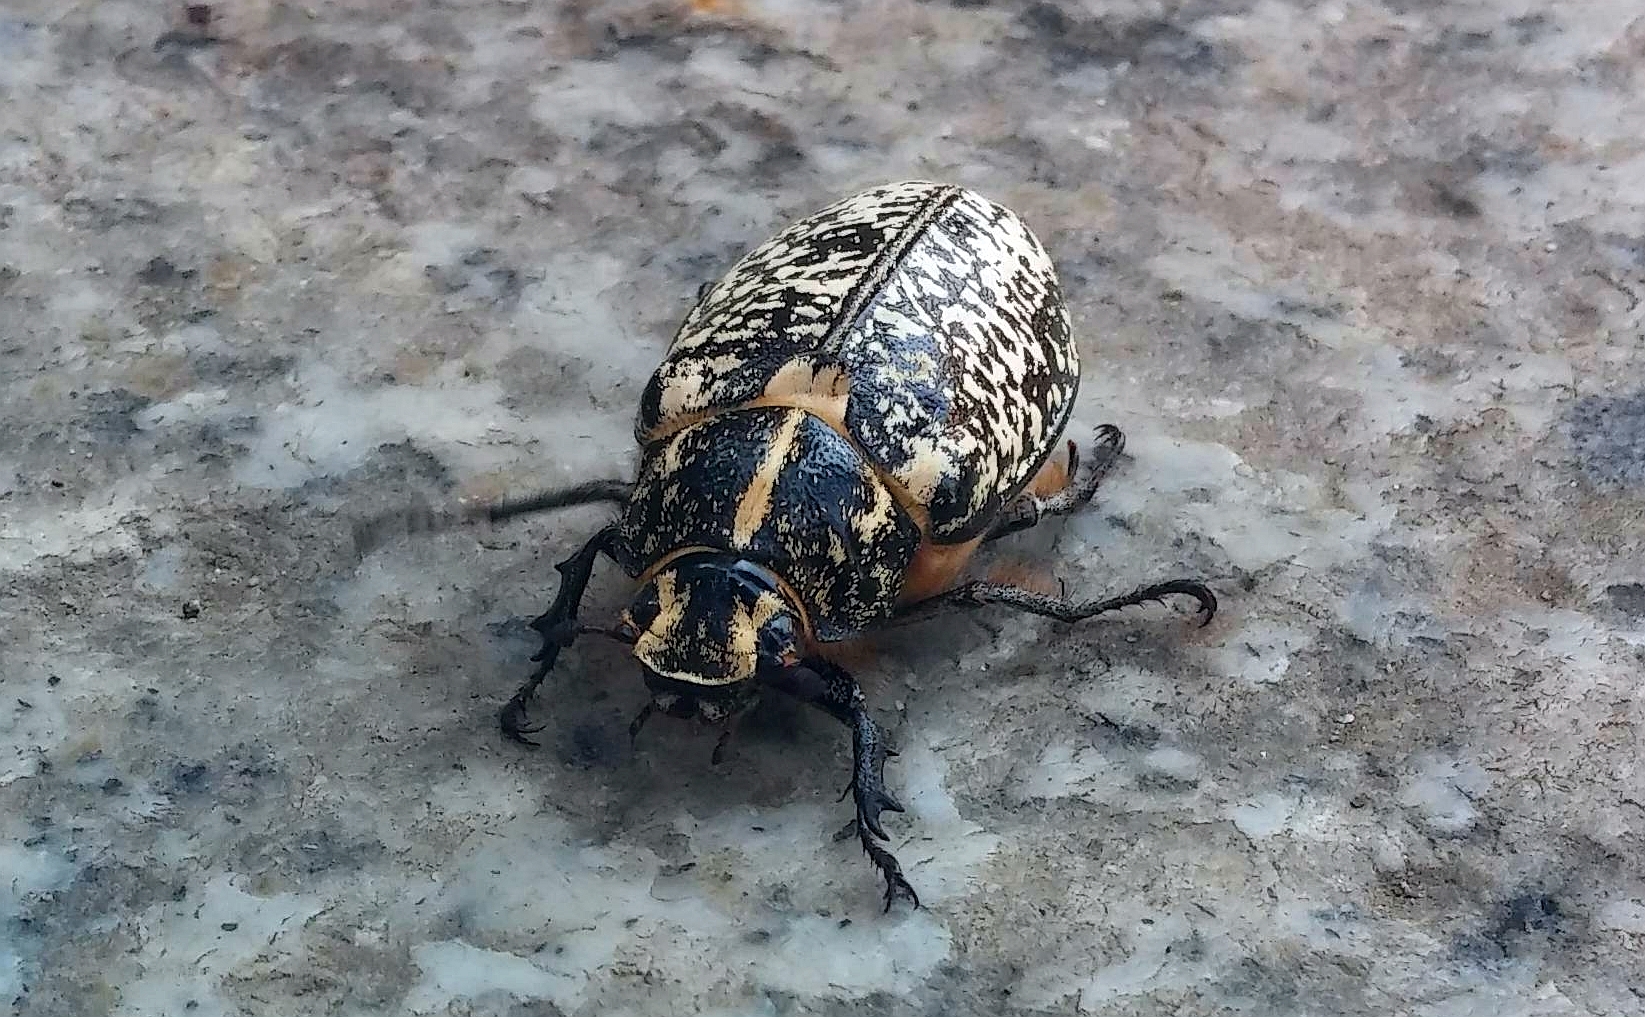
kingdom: Animalia
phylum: Arthropoda
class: Insecta
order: Coleoptera
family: Scarabaeidae
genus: Polyphylla
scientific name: Polyphylla fullo
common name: Pine chafer
